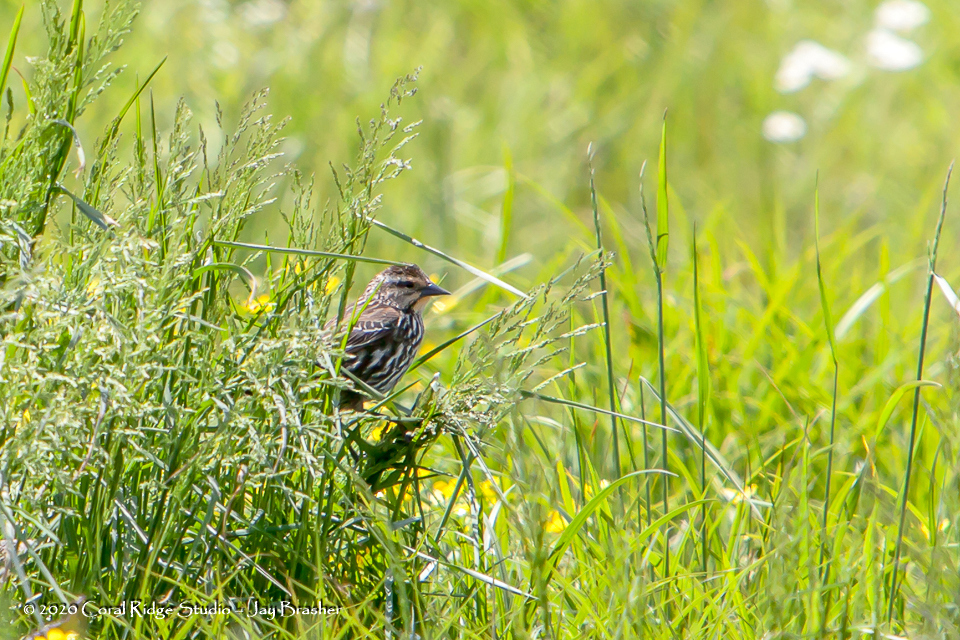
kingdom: Animalia
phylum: Chordata
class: Aves
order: Passeriformes
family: Icteridae
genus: Agelaius
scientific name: Agelaius phoeniceus
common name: Red-winged blackbird
